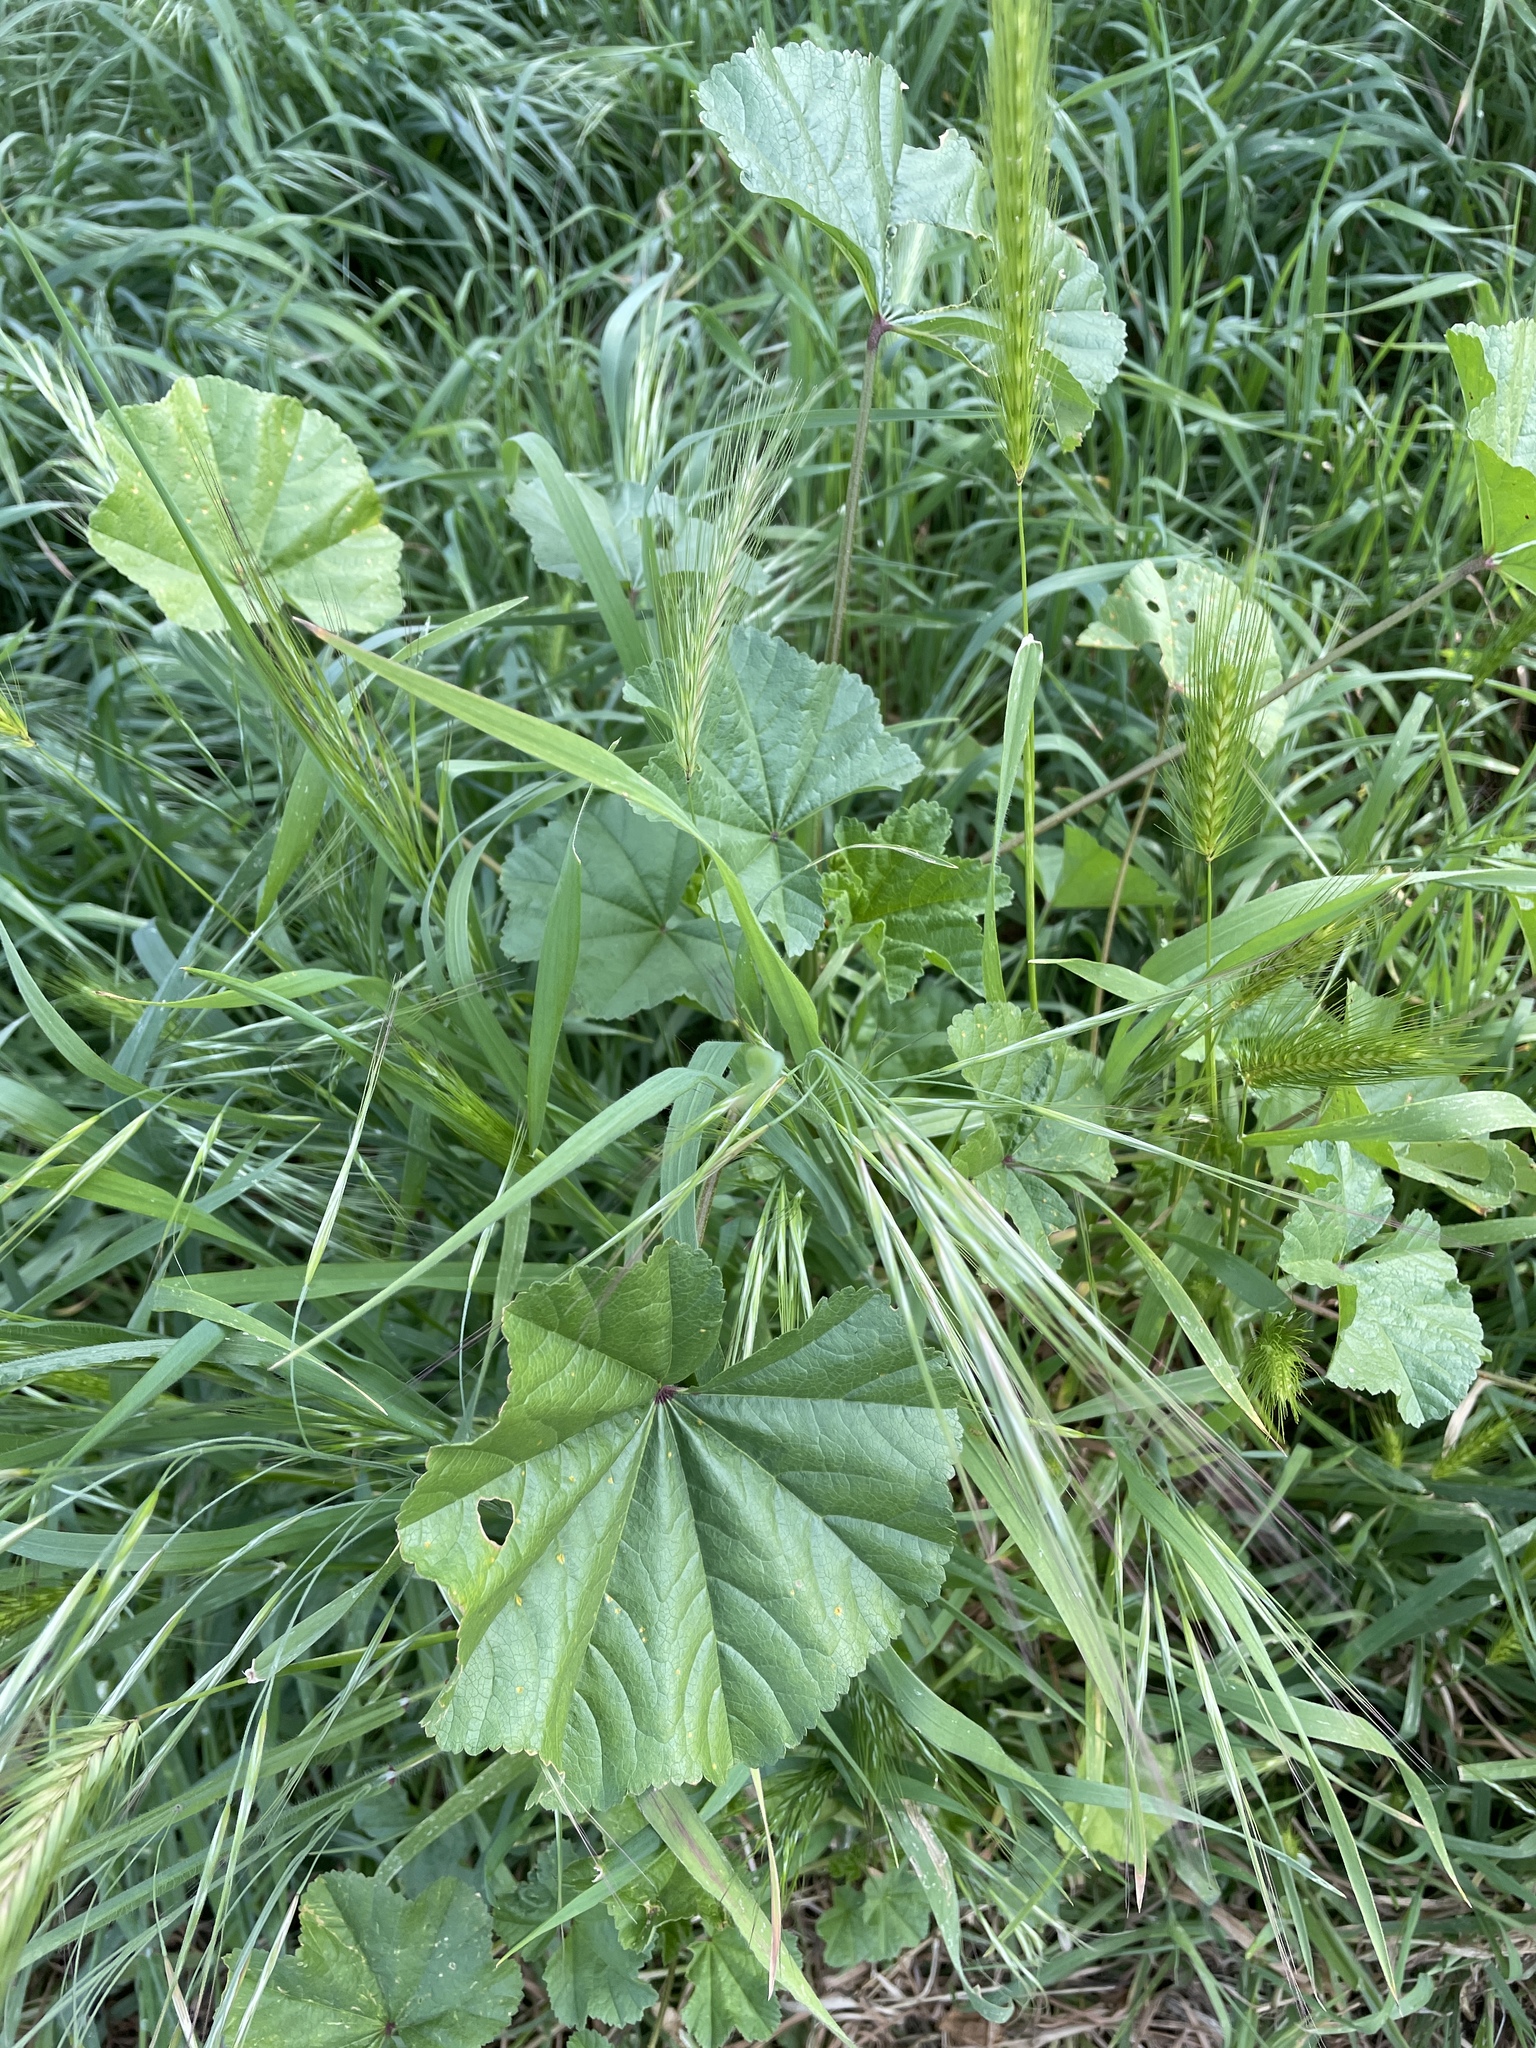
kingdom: Plantae
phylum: Tracheophyta
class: Magnoliopsida
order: Malvales
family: Malvaceae
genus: Malva
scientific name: Malva
